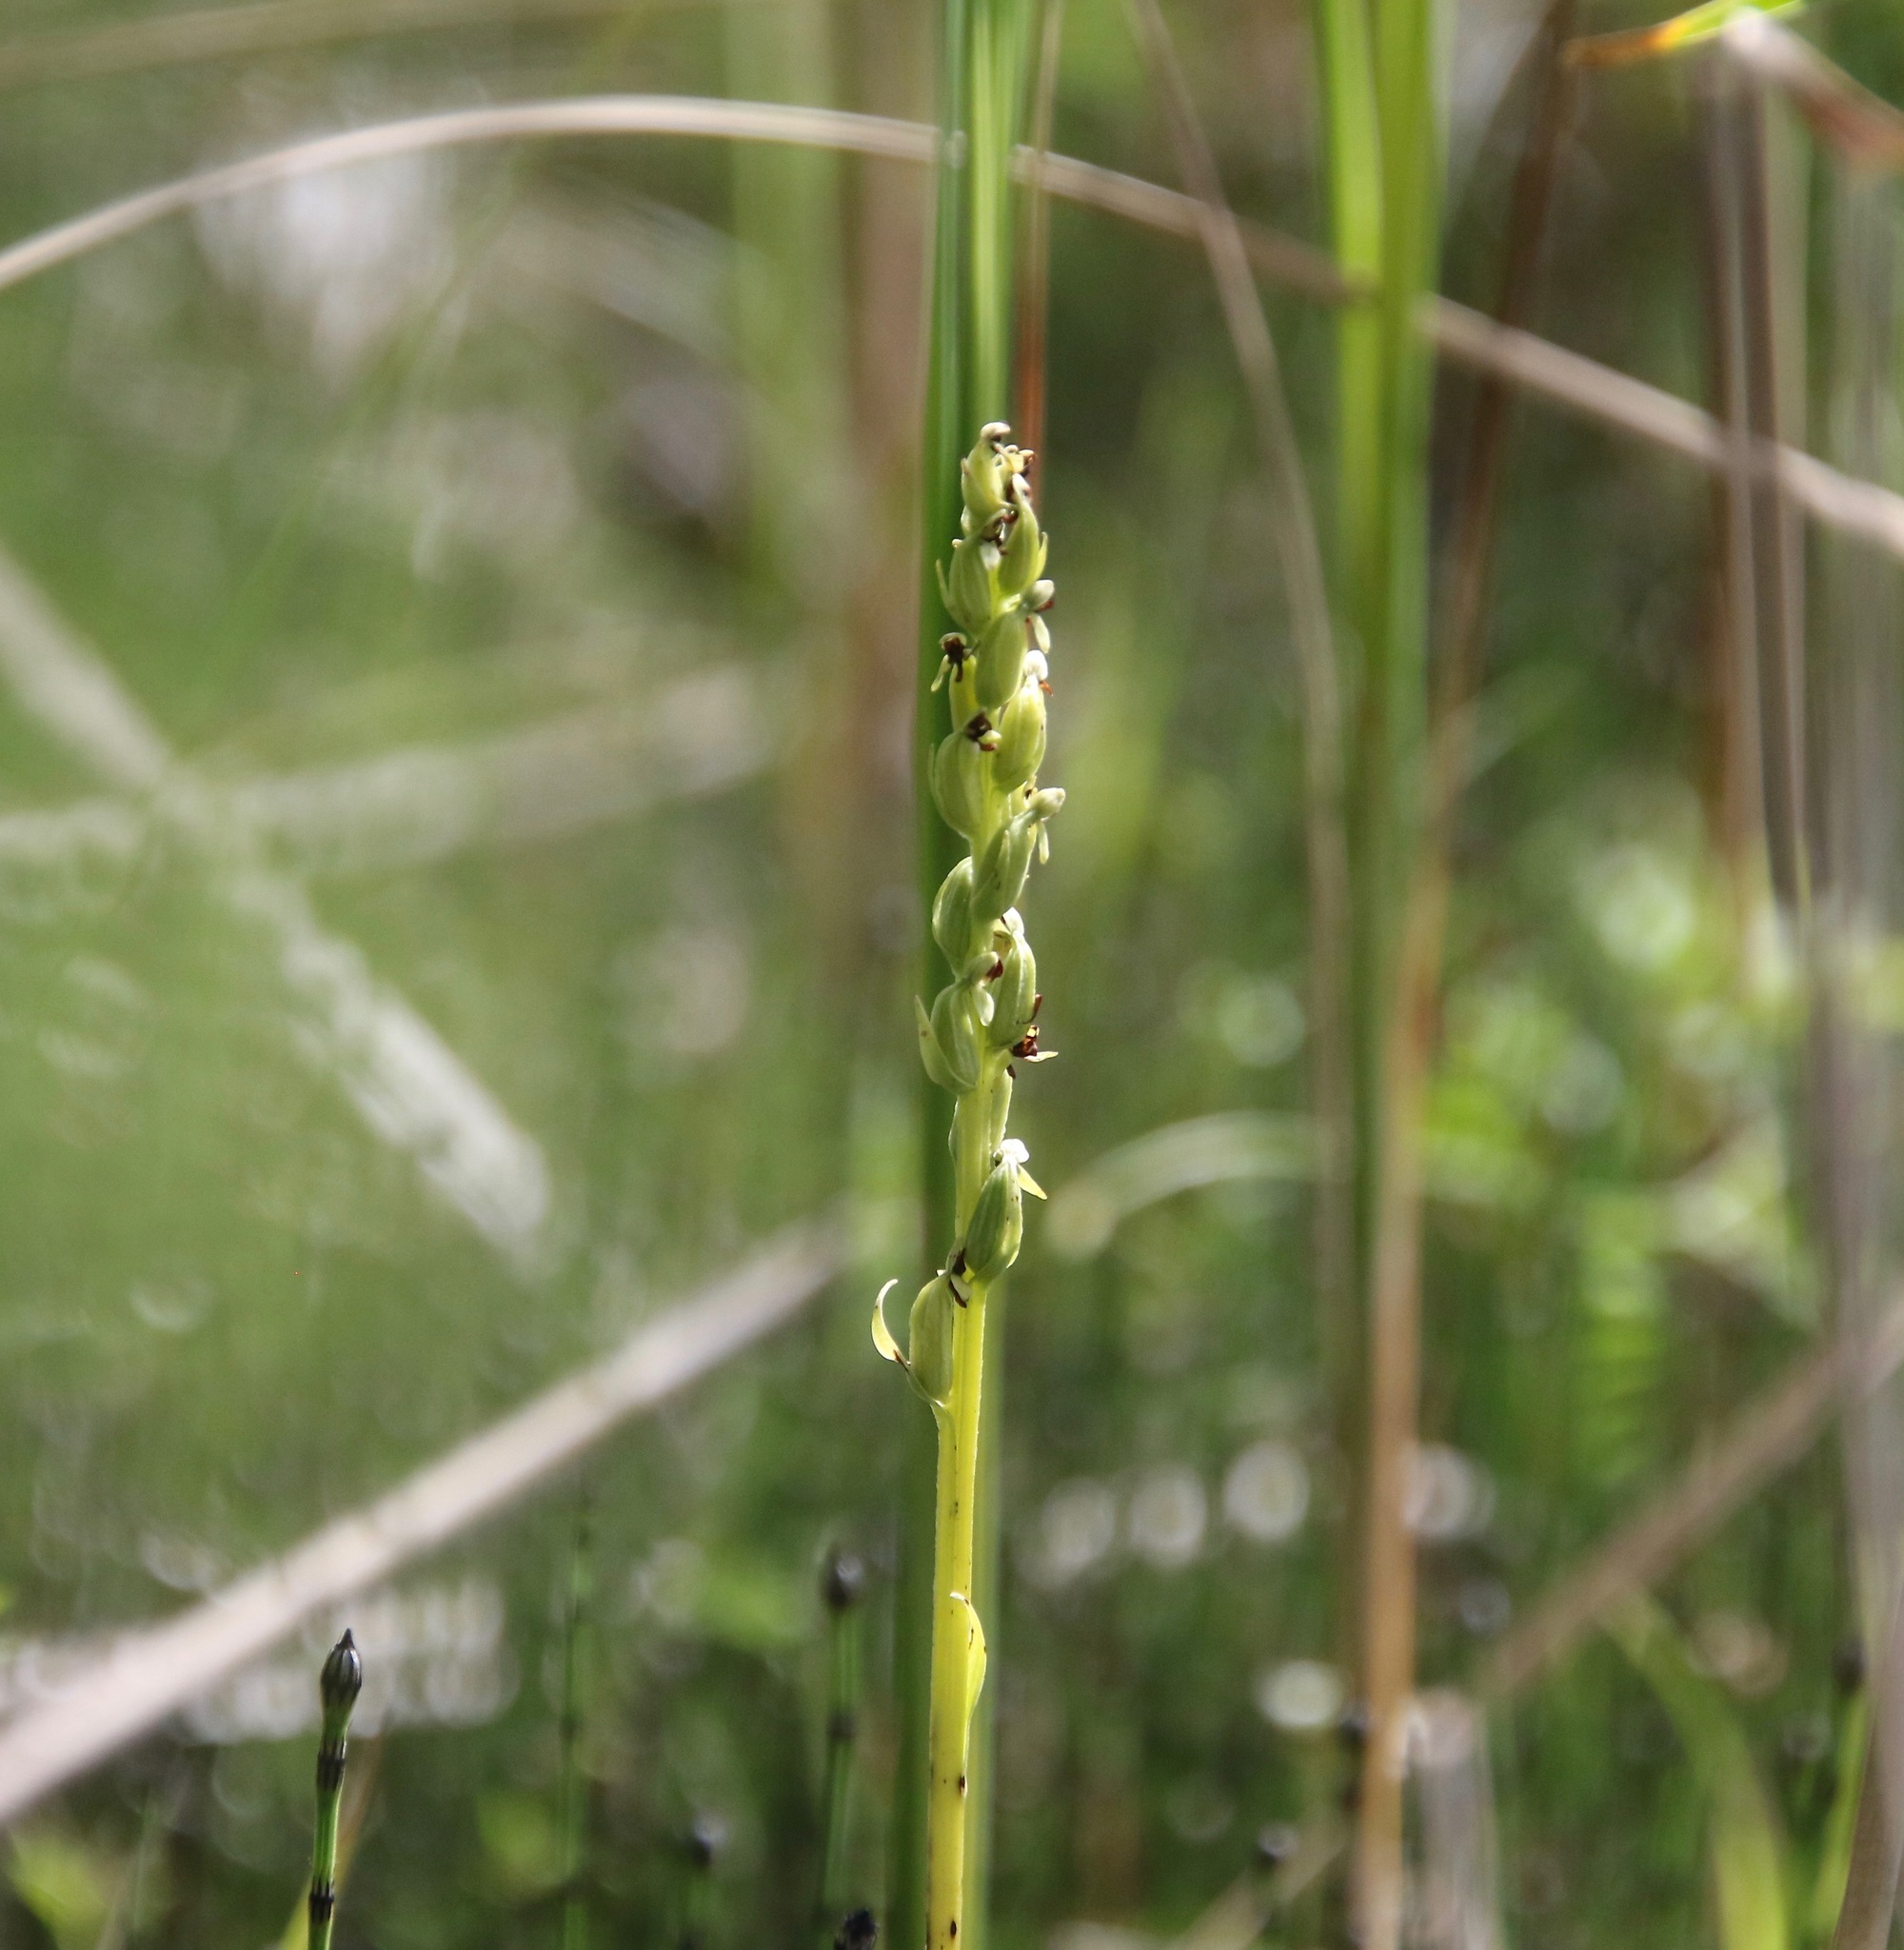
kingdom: Plantae
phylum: Tracheophyta
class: Liliopsida
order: Asparagales
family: Orchidaceae
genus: Platanthera
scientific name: Platanthera aquilonis
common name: Northern green orchid
